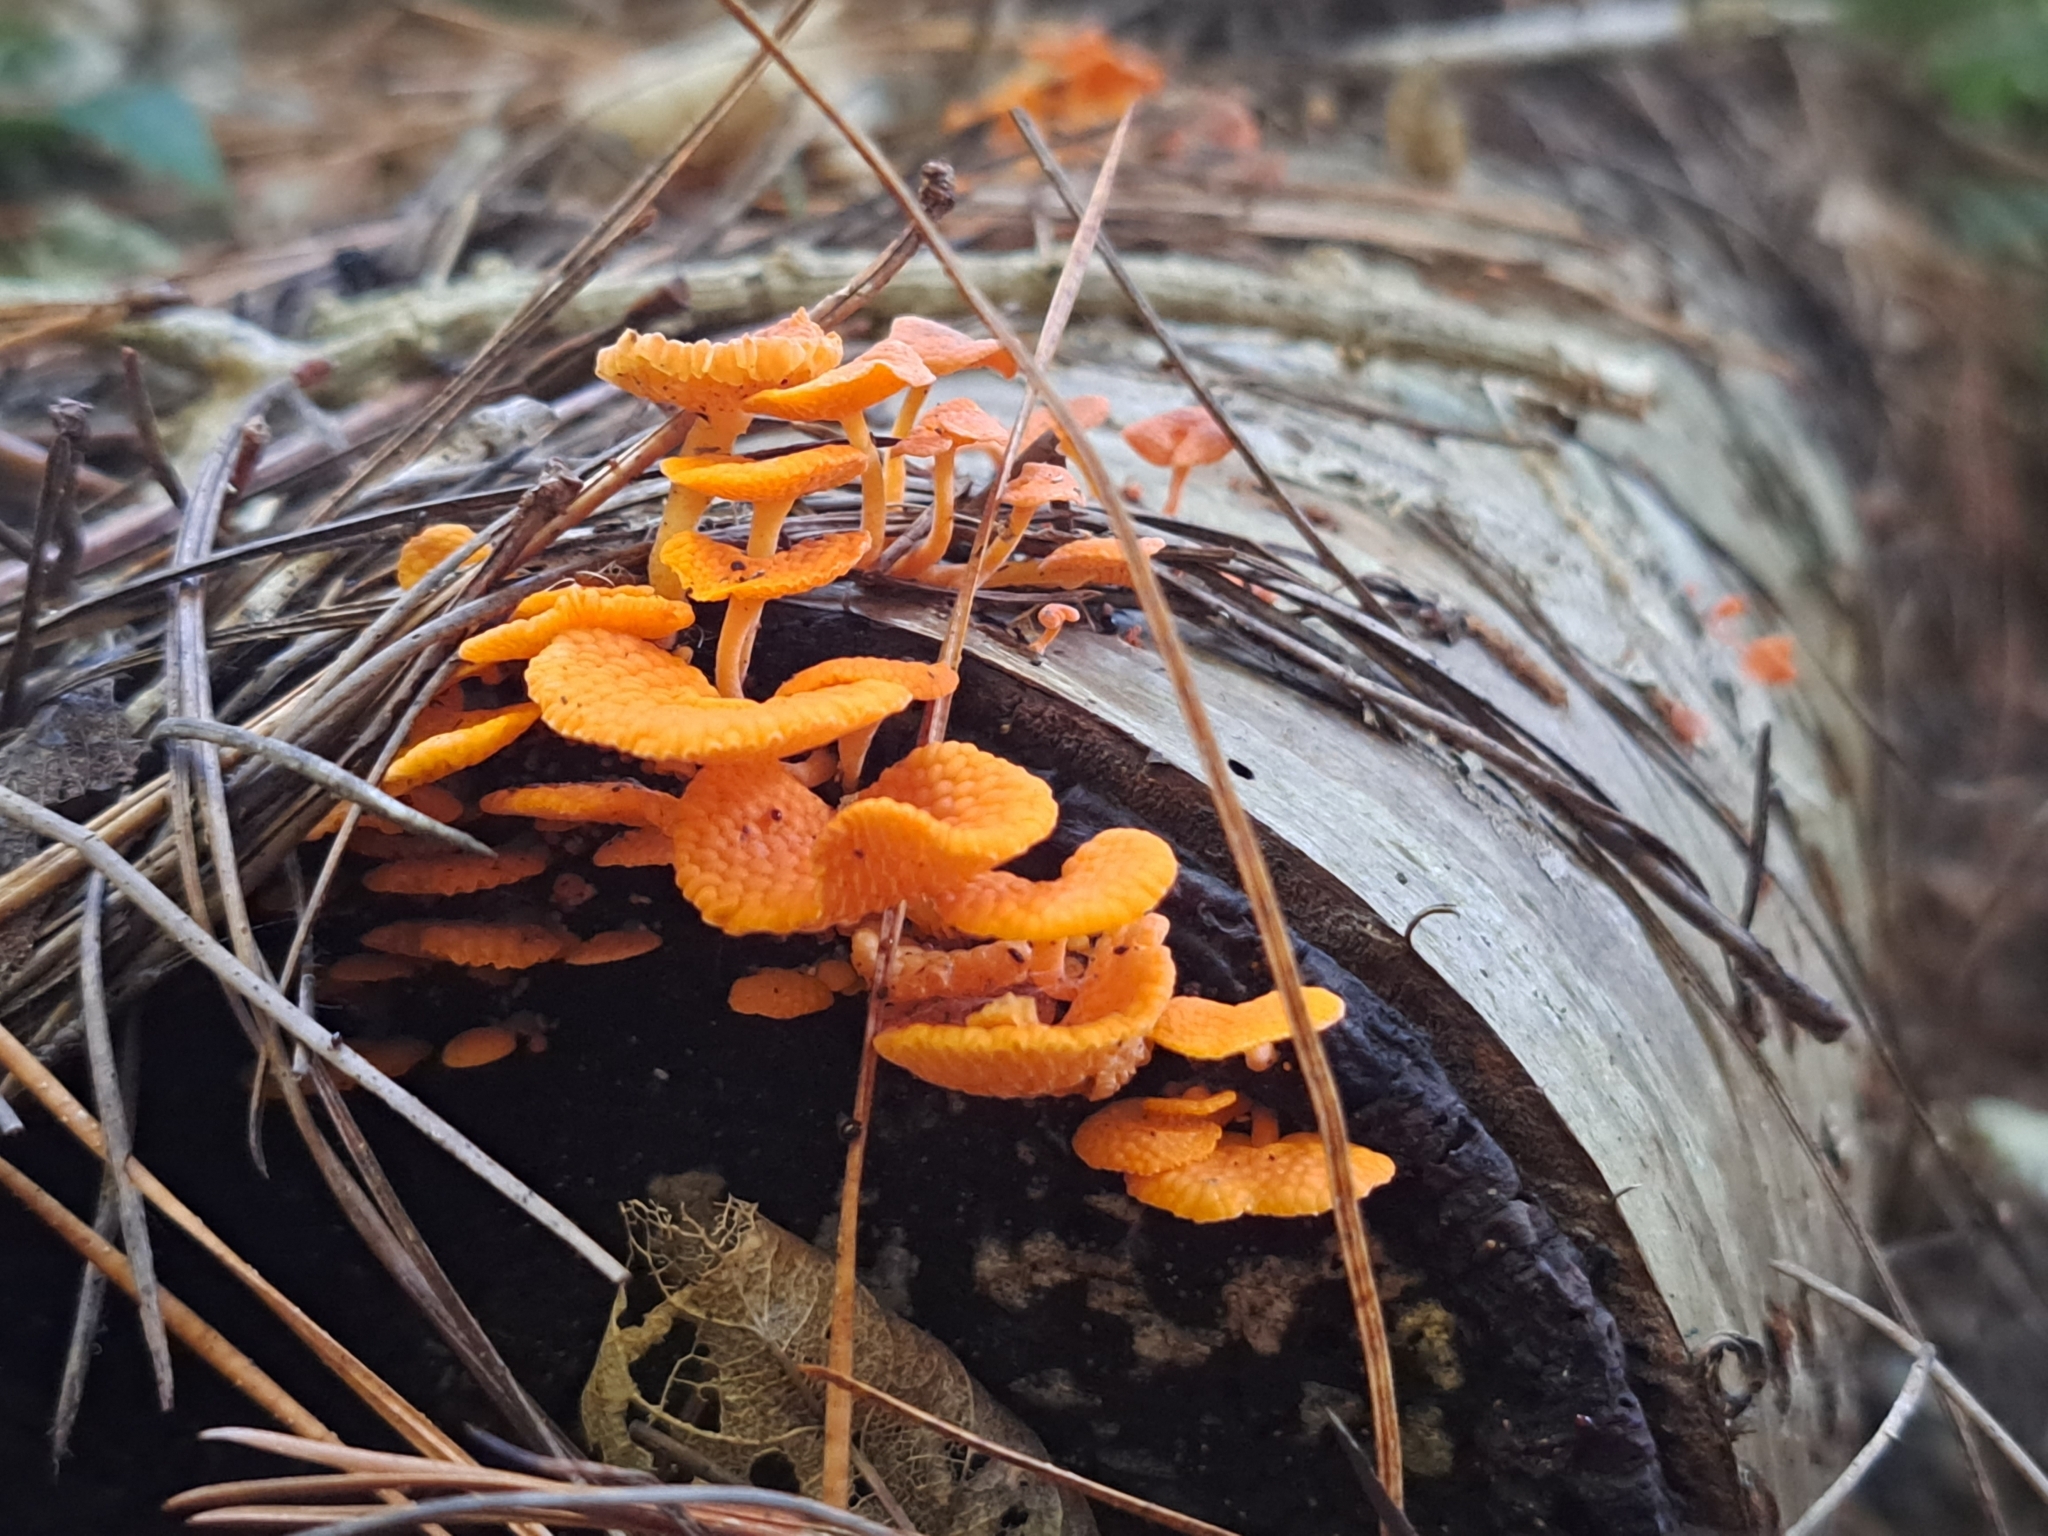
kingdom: Fungi
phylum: Basidiomycota
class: Agaricomycetes
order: Agaricales
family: Mycenaceae
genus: Favolaschia
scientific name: Favolaschia claudopus
